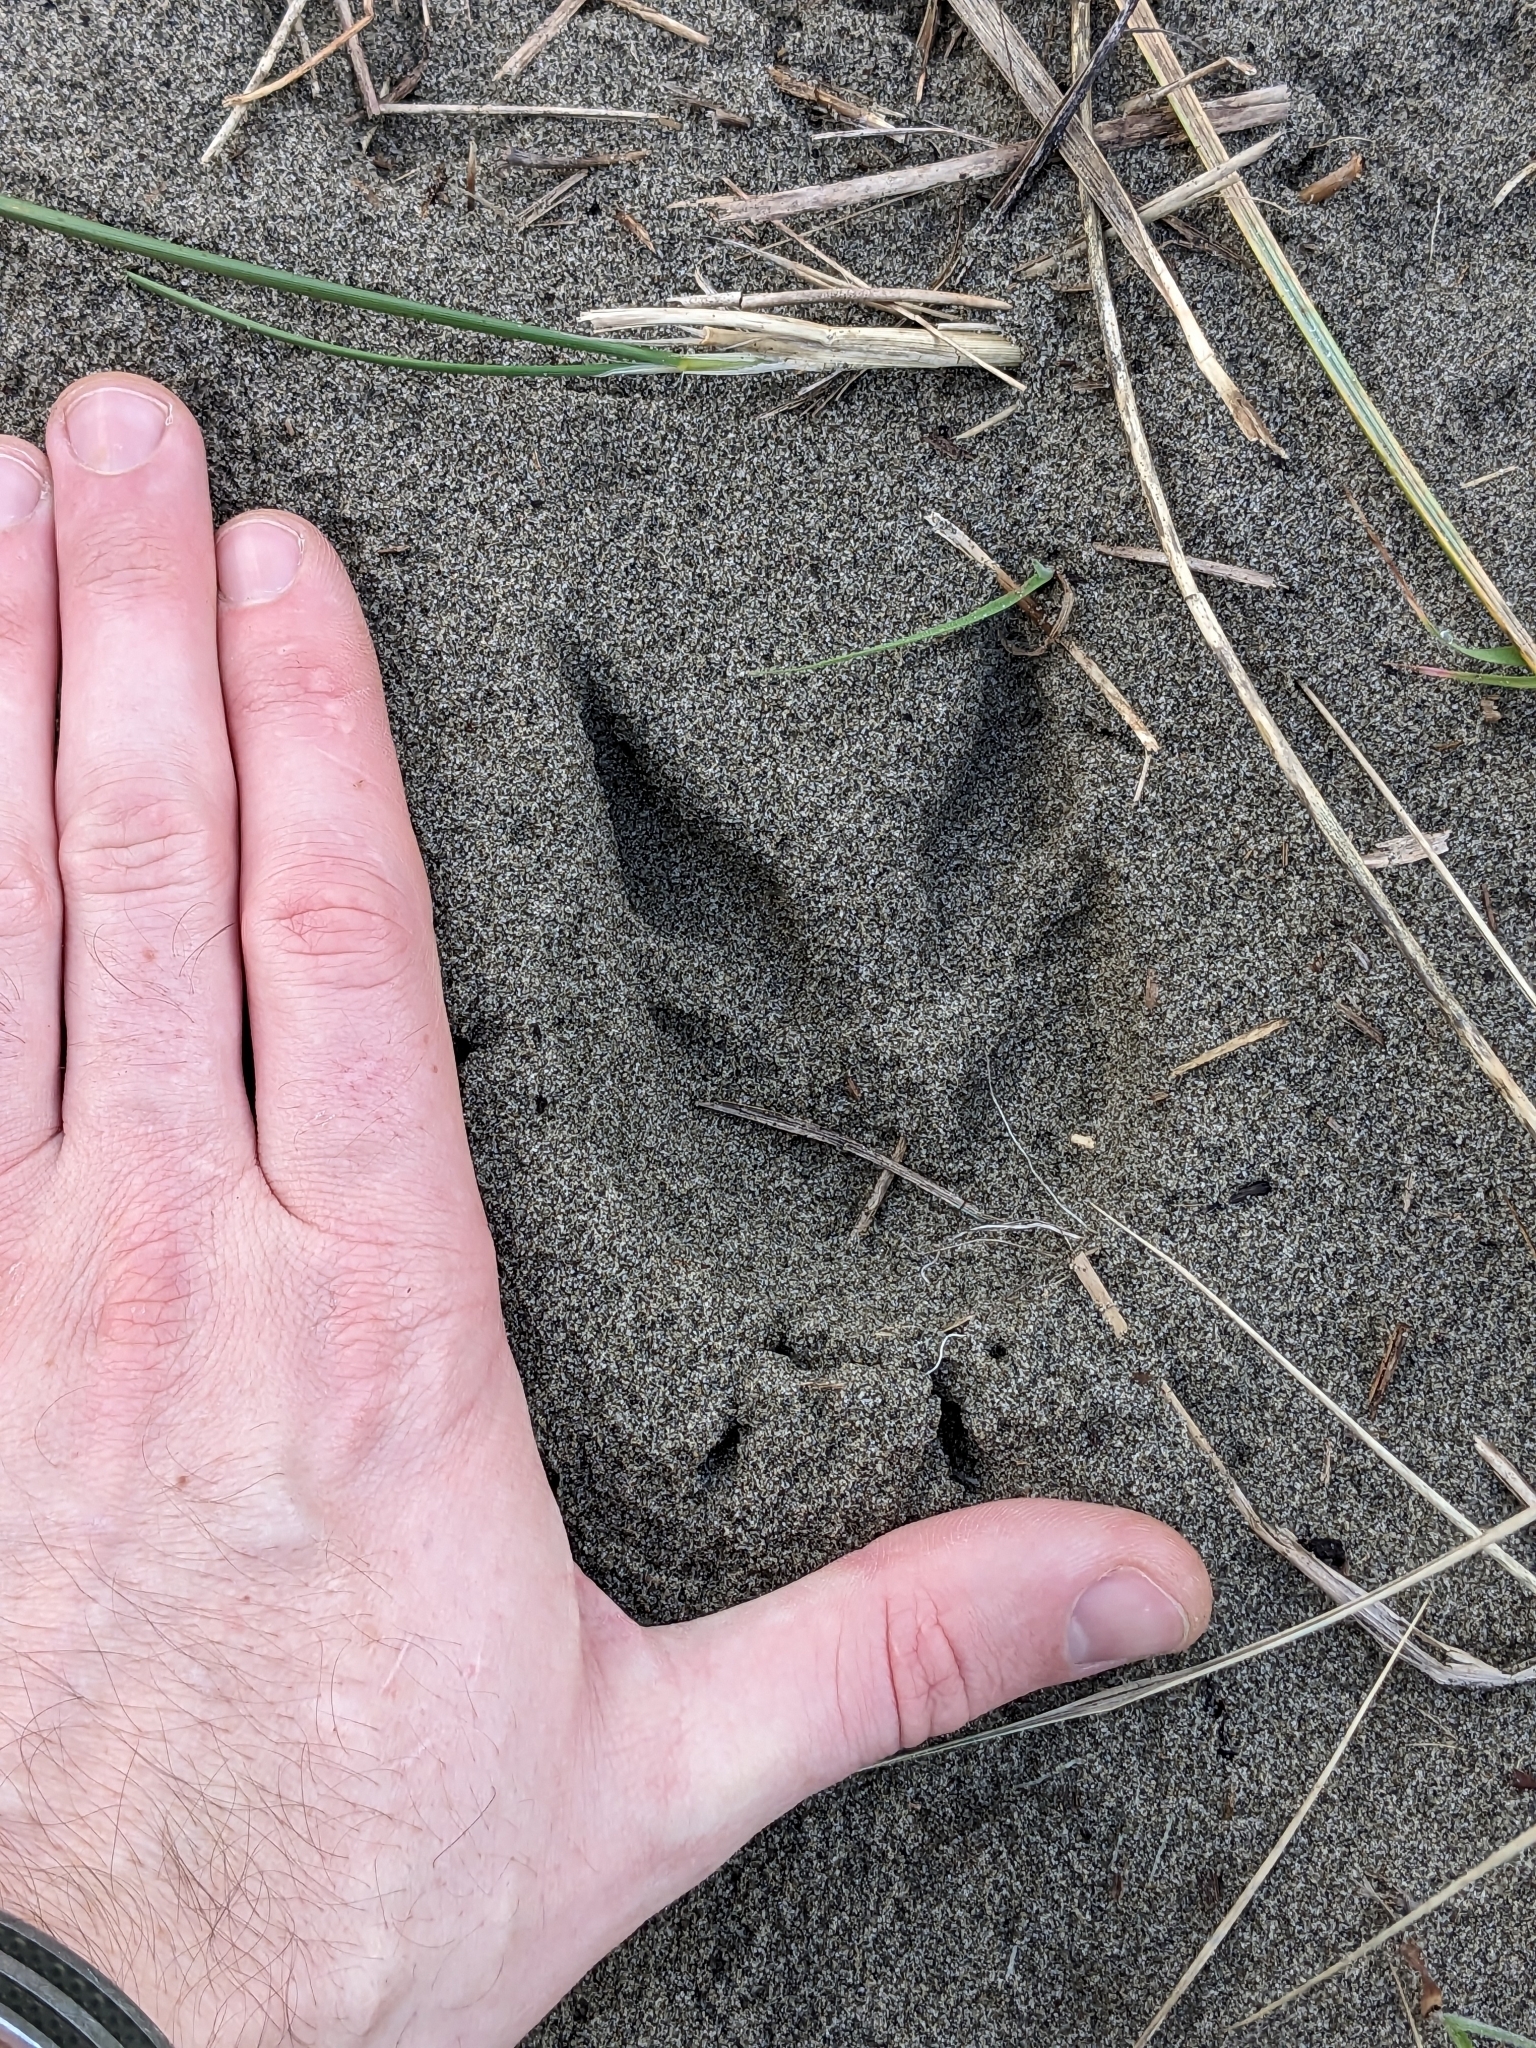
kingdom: Animalia
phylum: Chordata
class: Mammalia
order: Artiodactyla
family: Bovidae
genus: Capra
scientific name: Capra hircus
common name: Domestic goat
